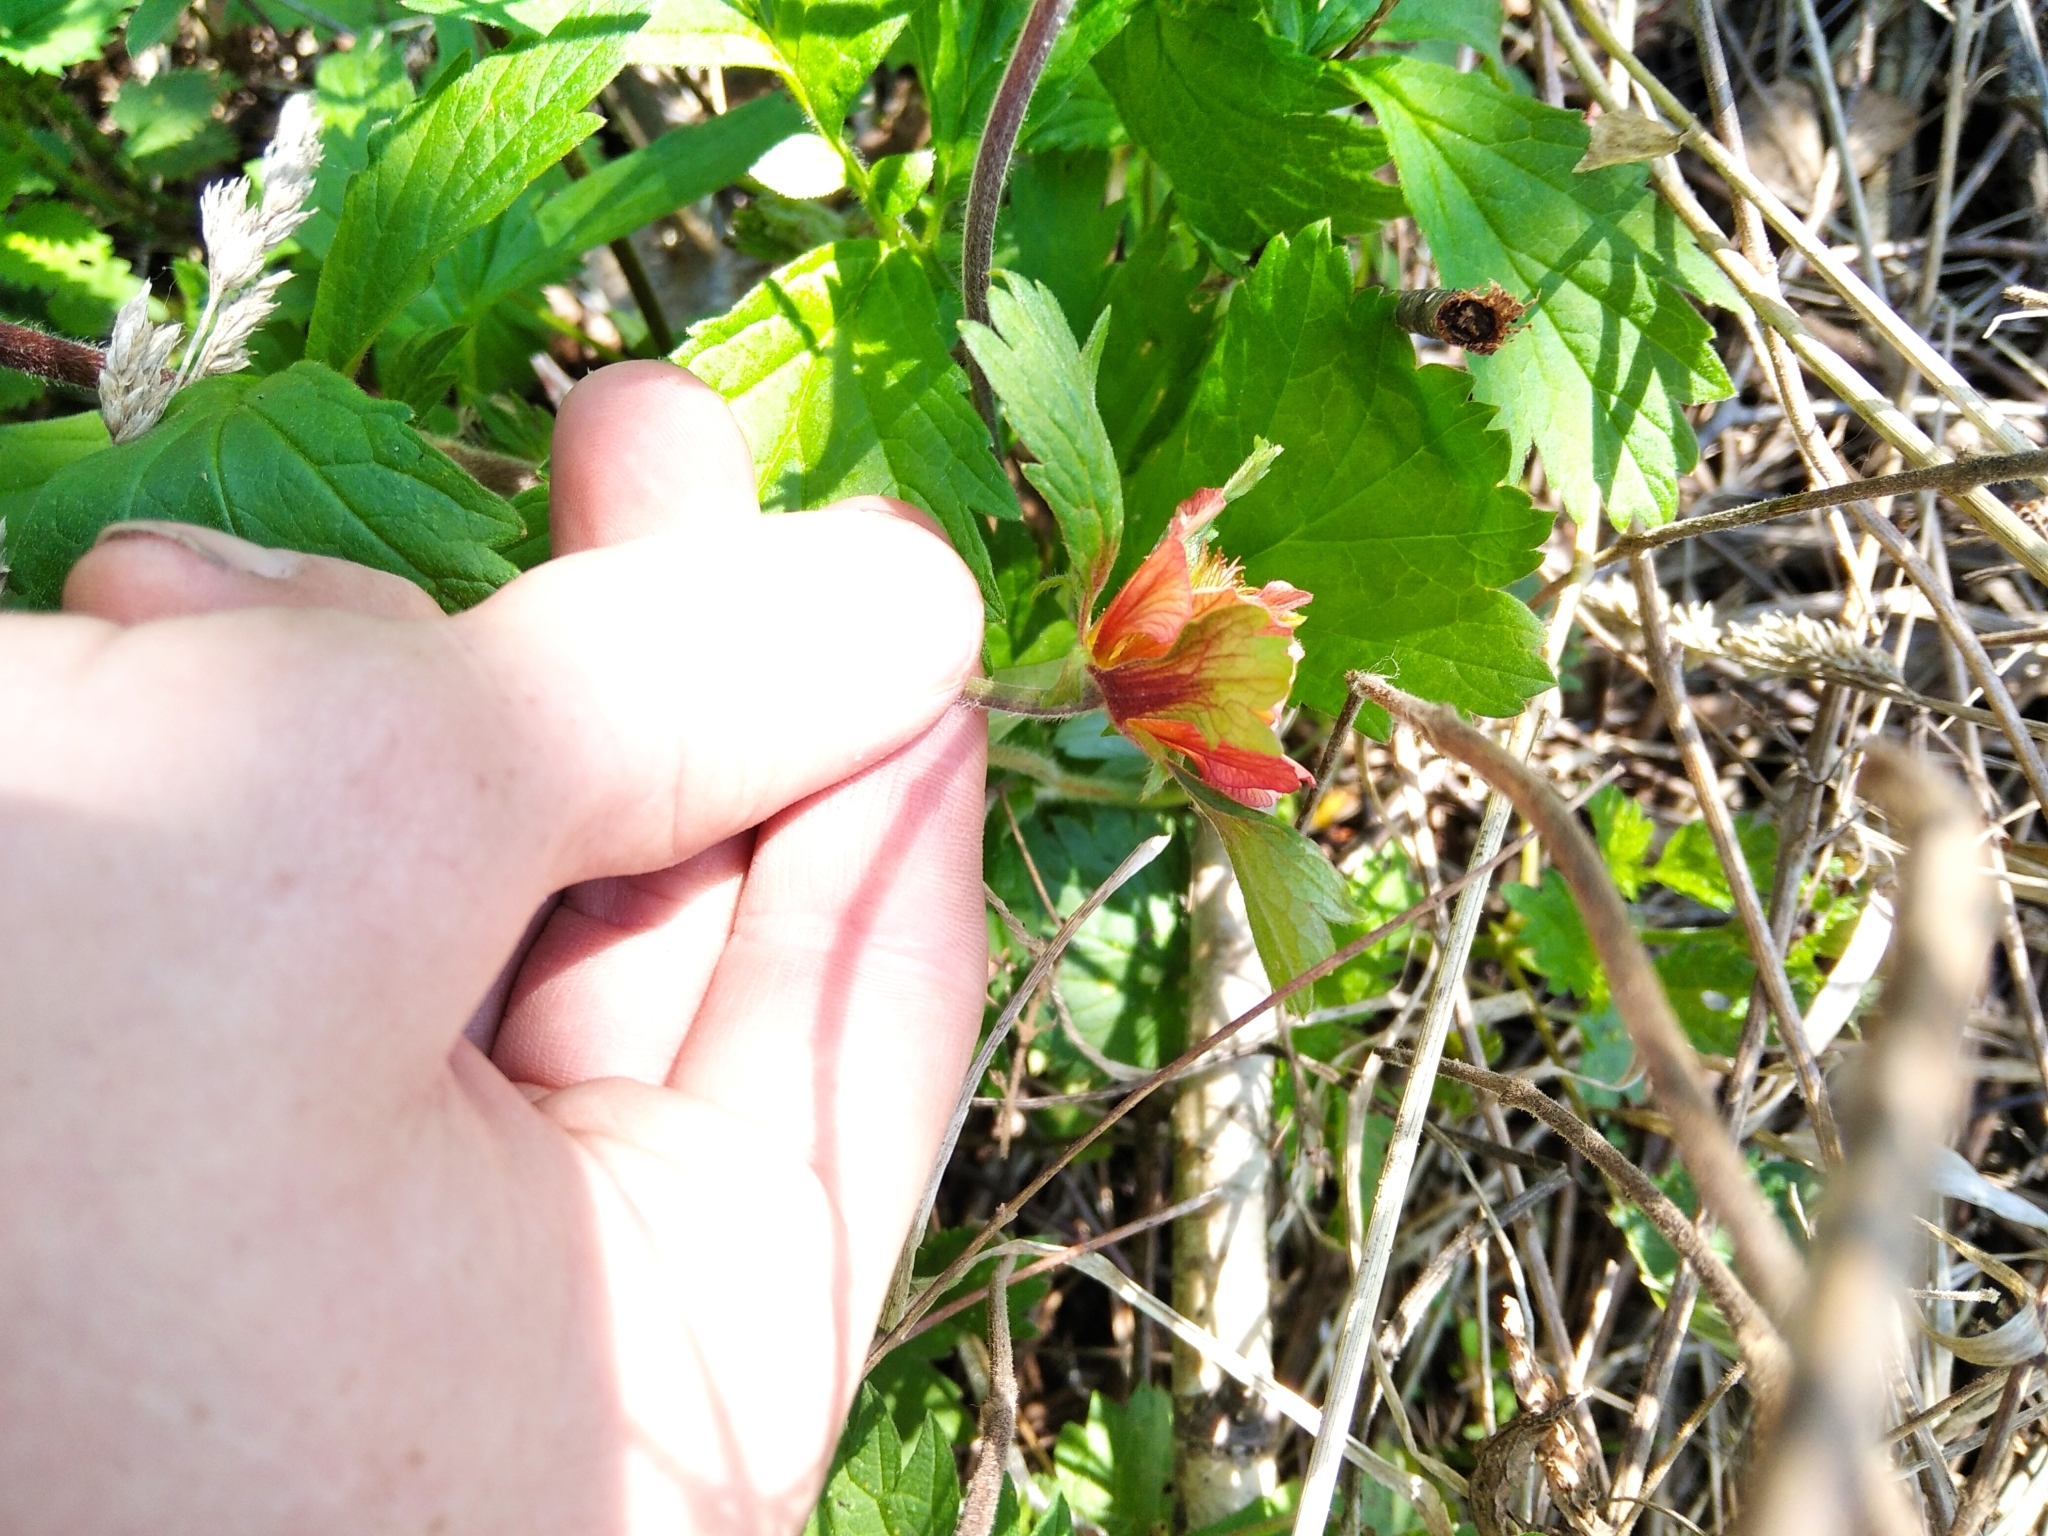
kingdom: Plantae
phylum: Tracheophyta
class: Magnoliopsida
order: Rosales
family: Rosaceae
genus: Geum
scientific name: Geum rivale
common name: Water avens
